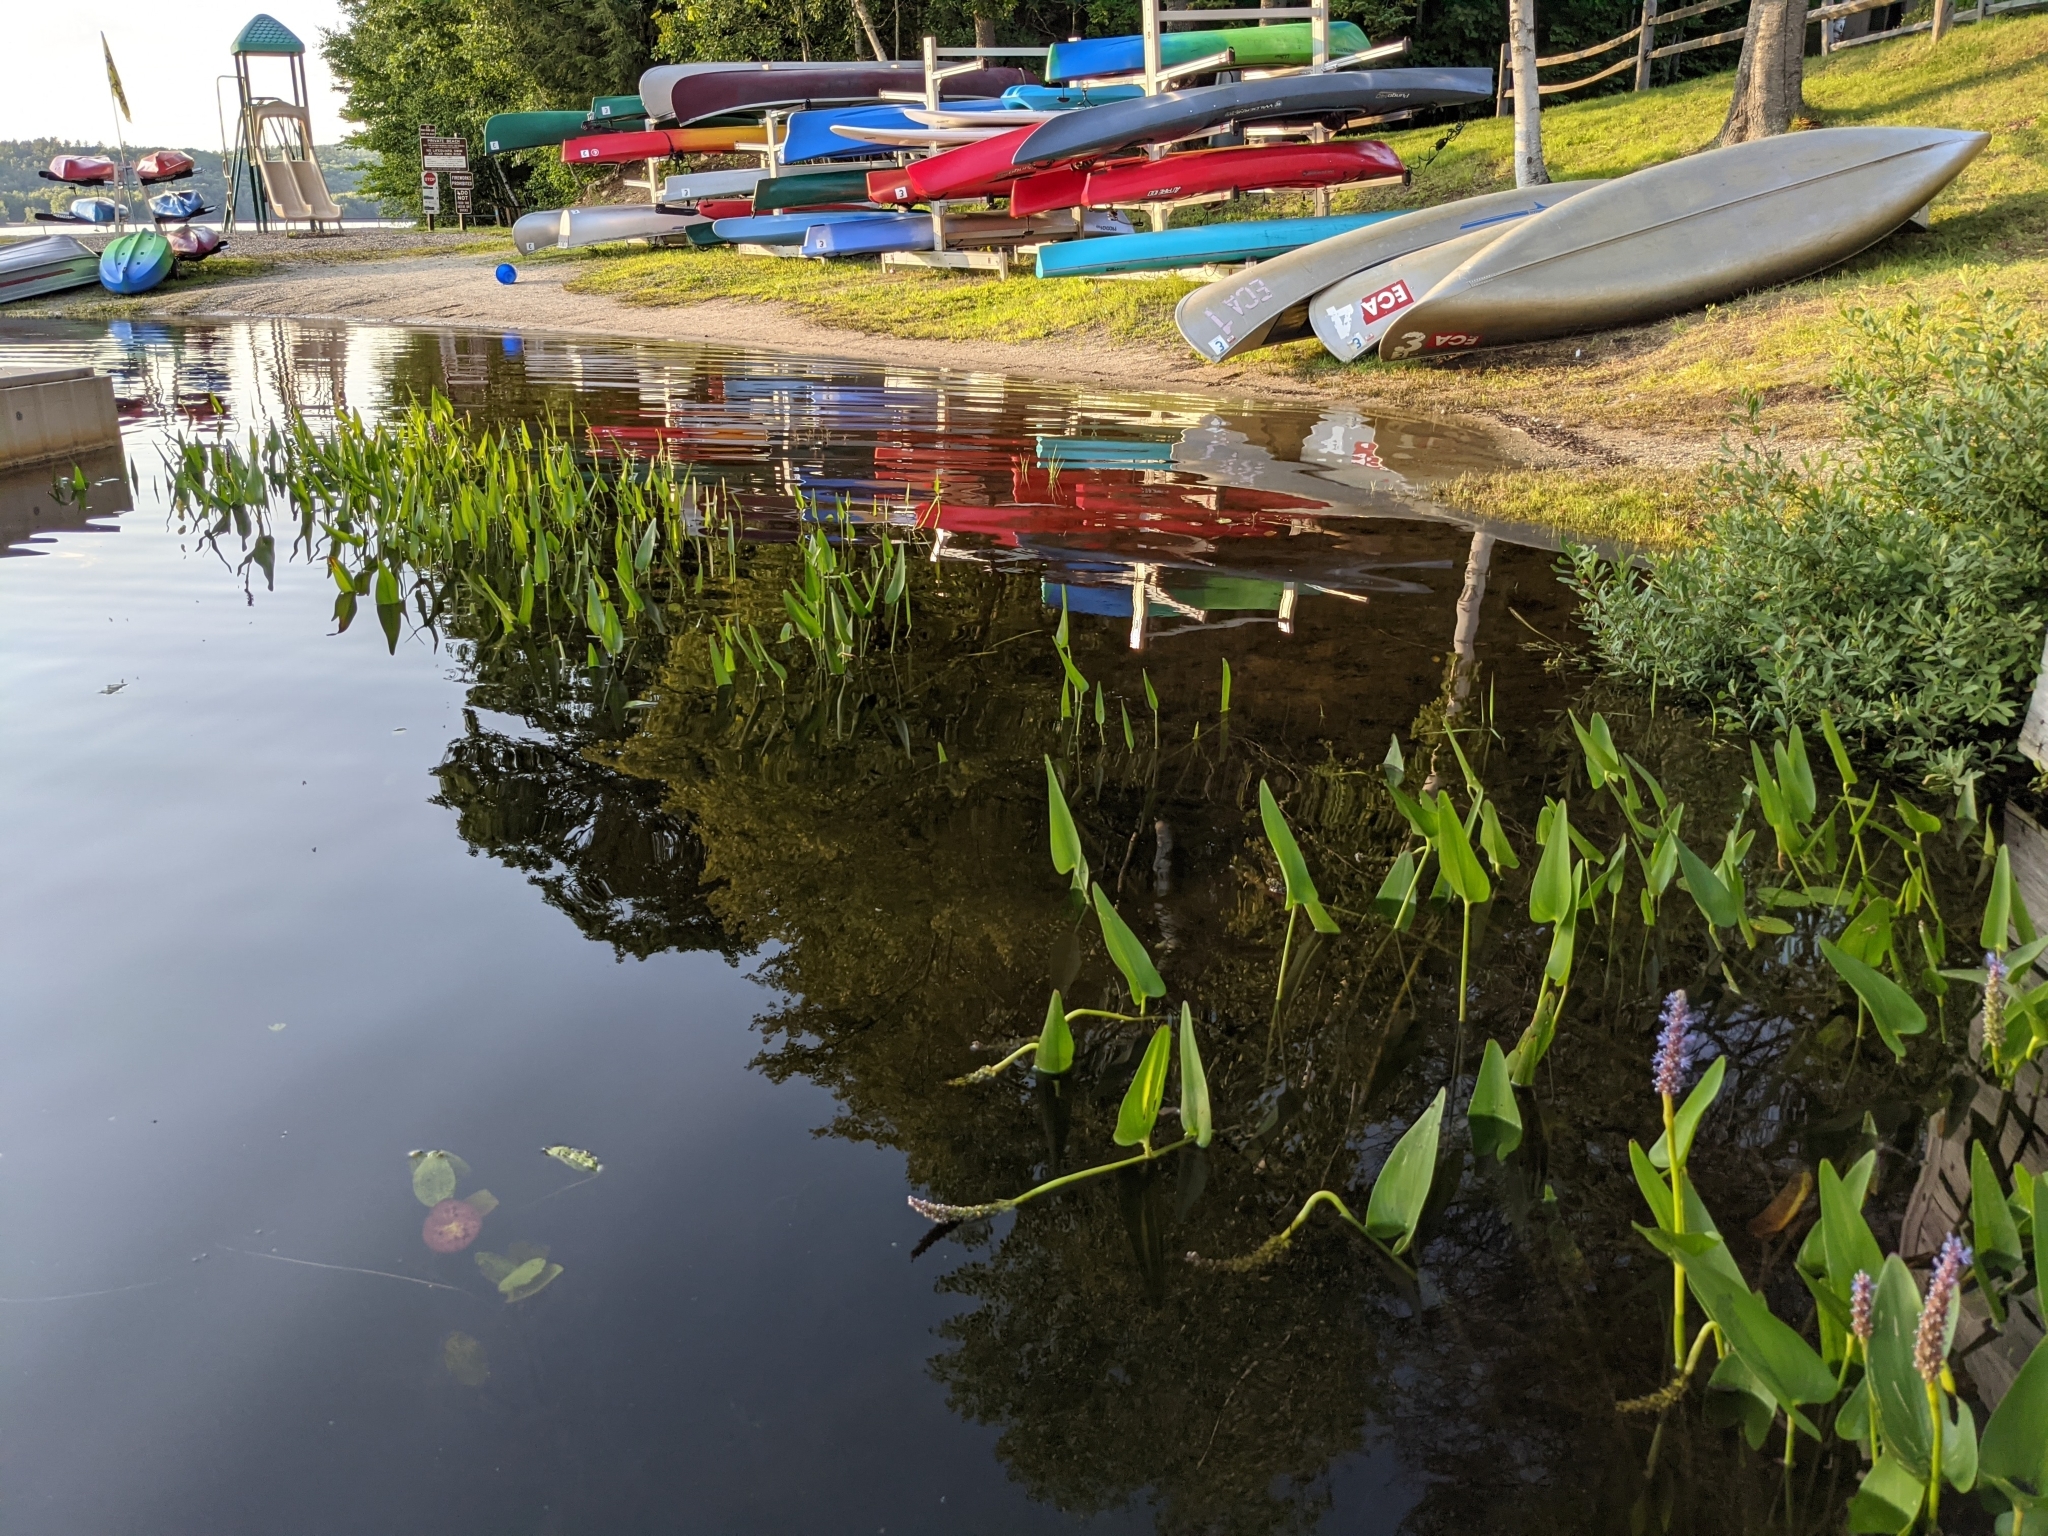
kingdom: Plantae
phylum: Tracheophyta
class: Liliopsida
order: Commelinales
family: Pontederiaceae
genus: Pontederia
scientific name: Pontederia cordata
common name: Pickerelweed
